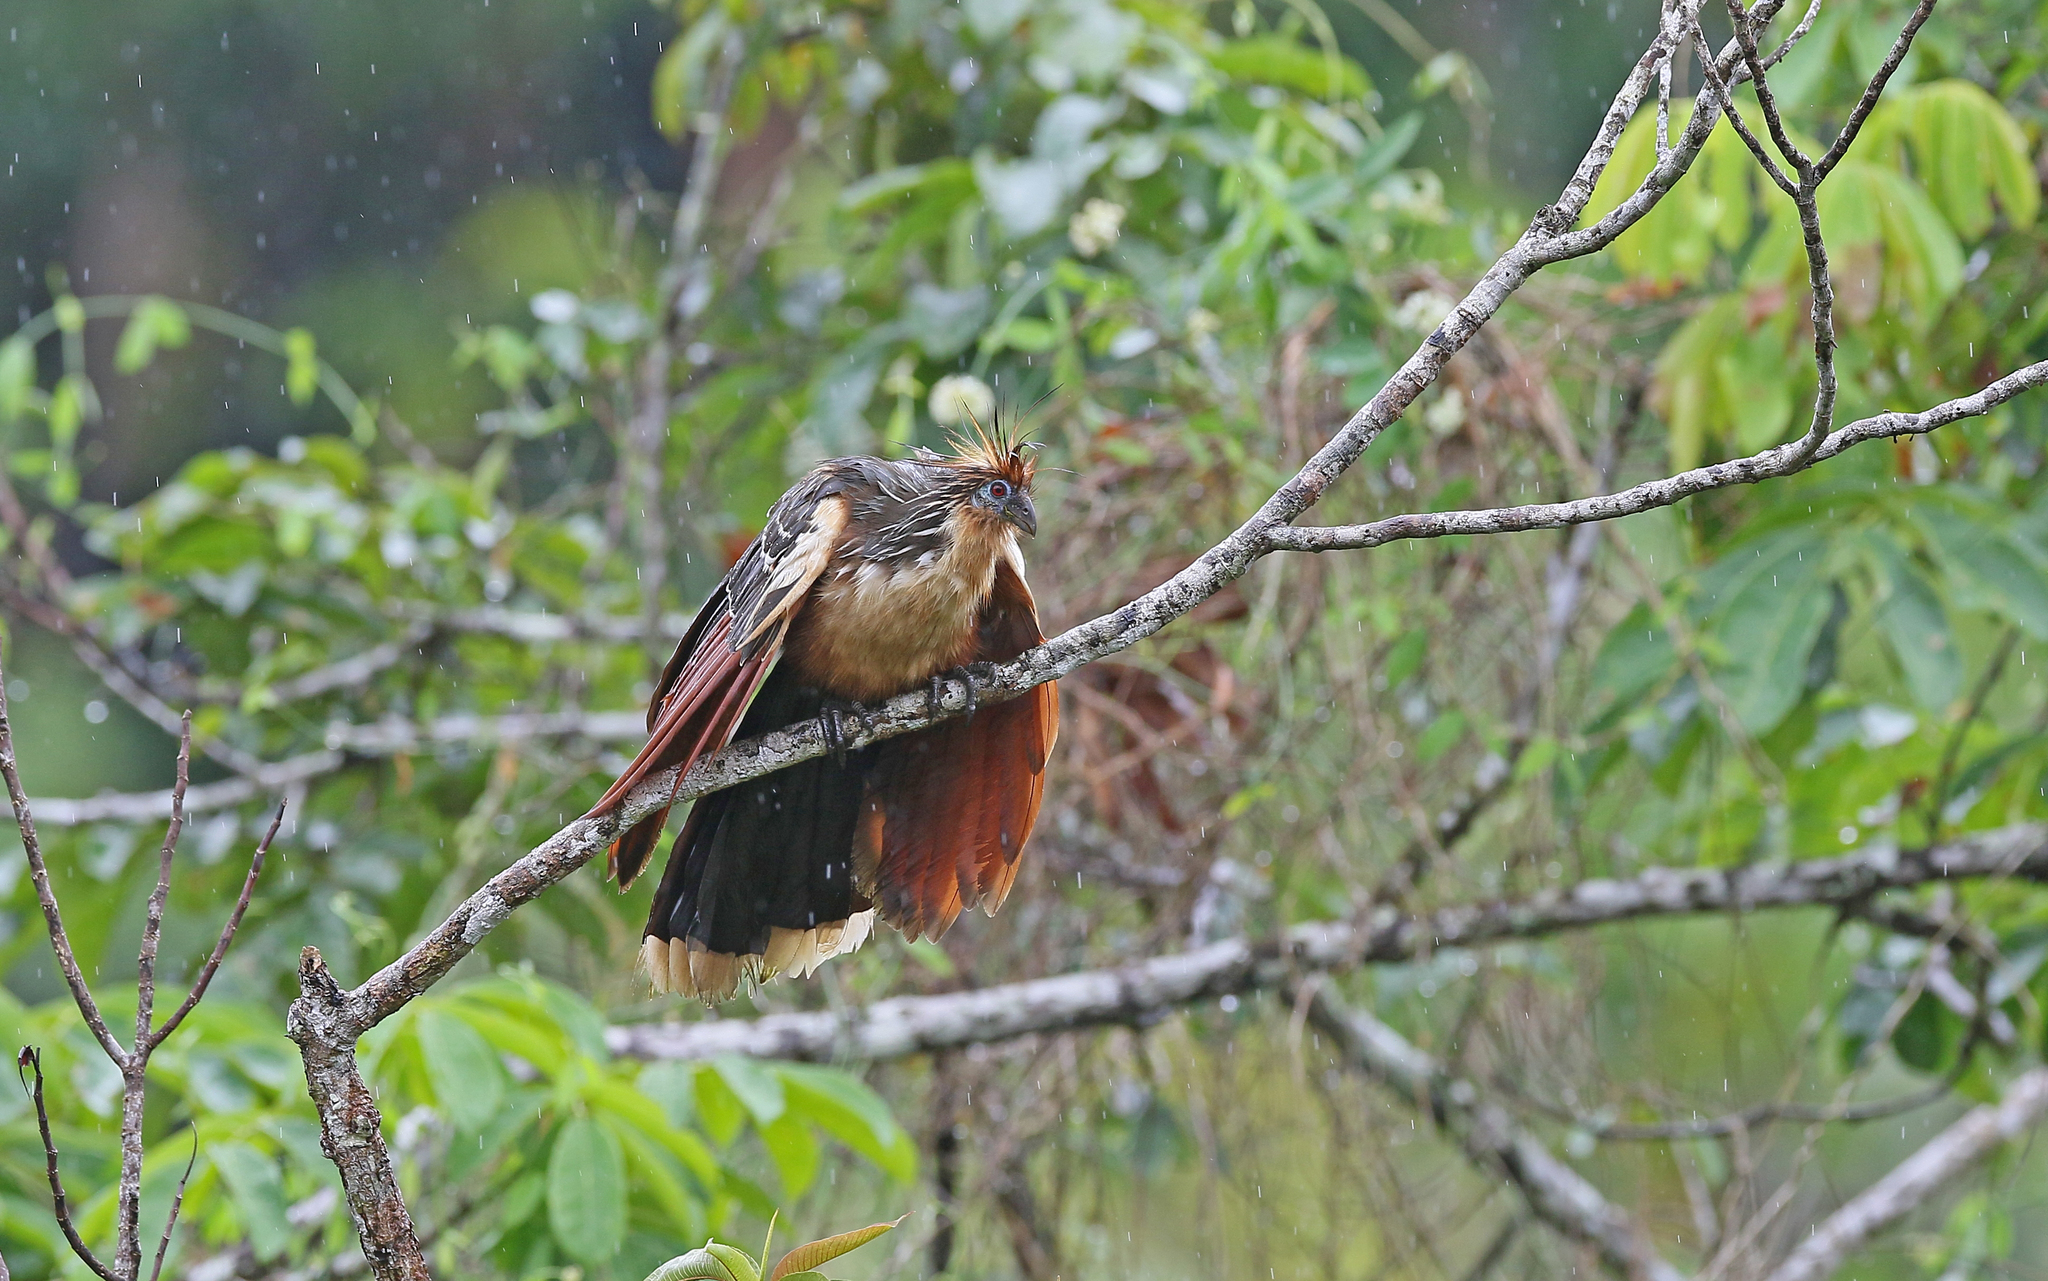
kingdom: Animalia
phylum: Chordata
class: Aves
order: Opisthocomiformes
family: Opisthocomidae
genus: Opisthocomus
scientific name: Opisthocomus hoazin
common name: Hoatzin
